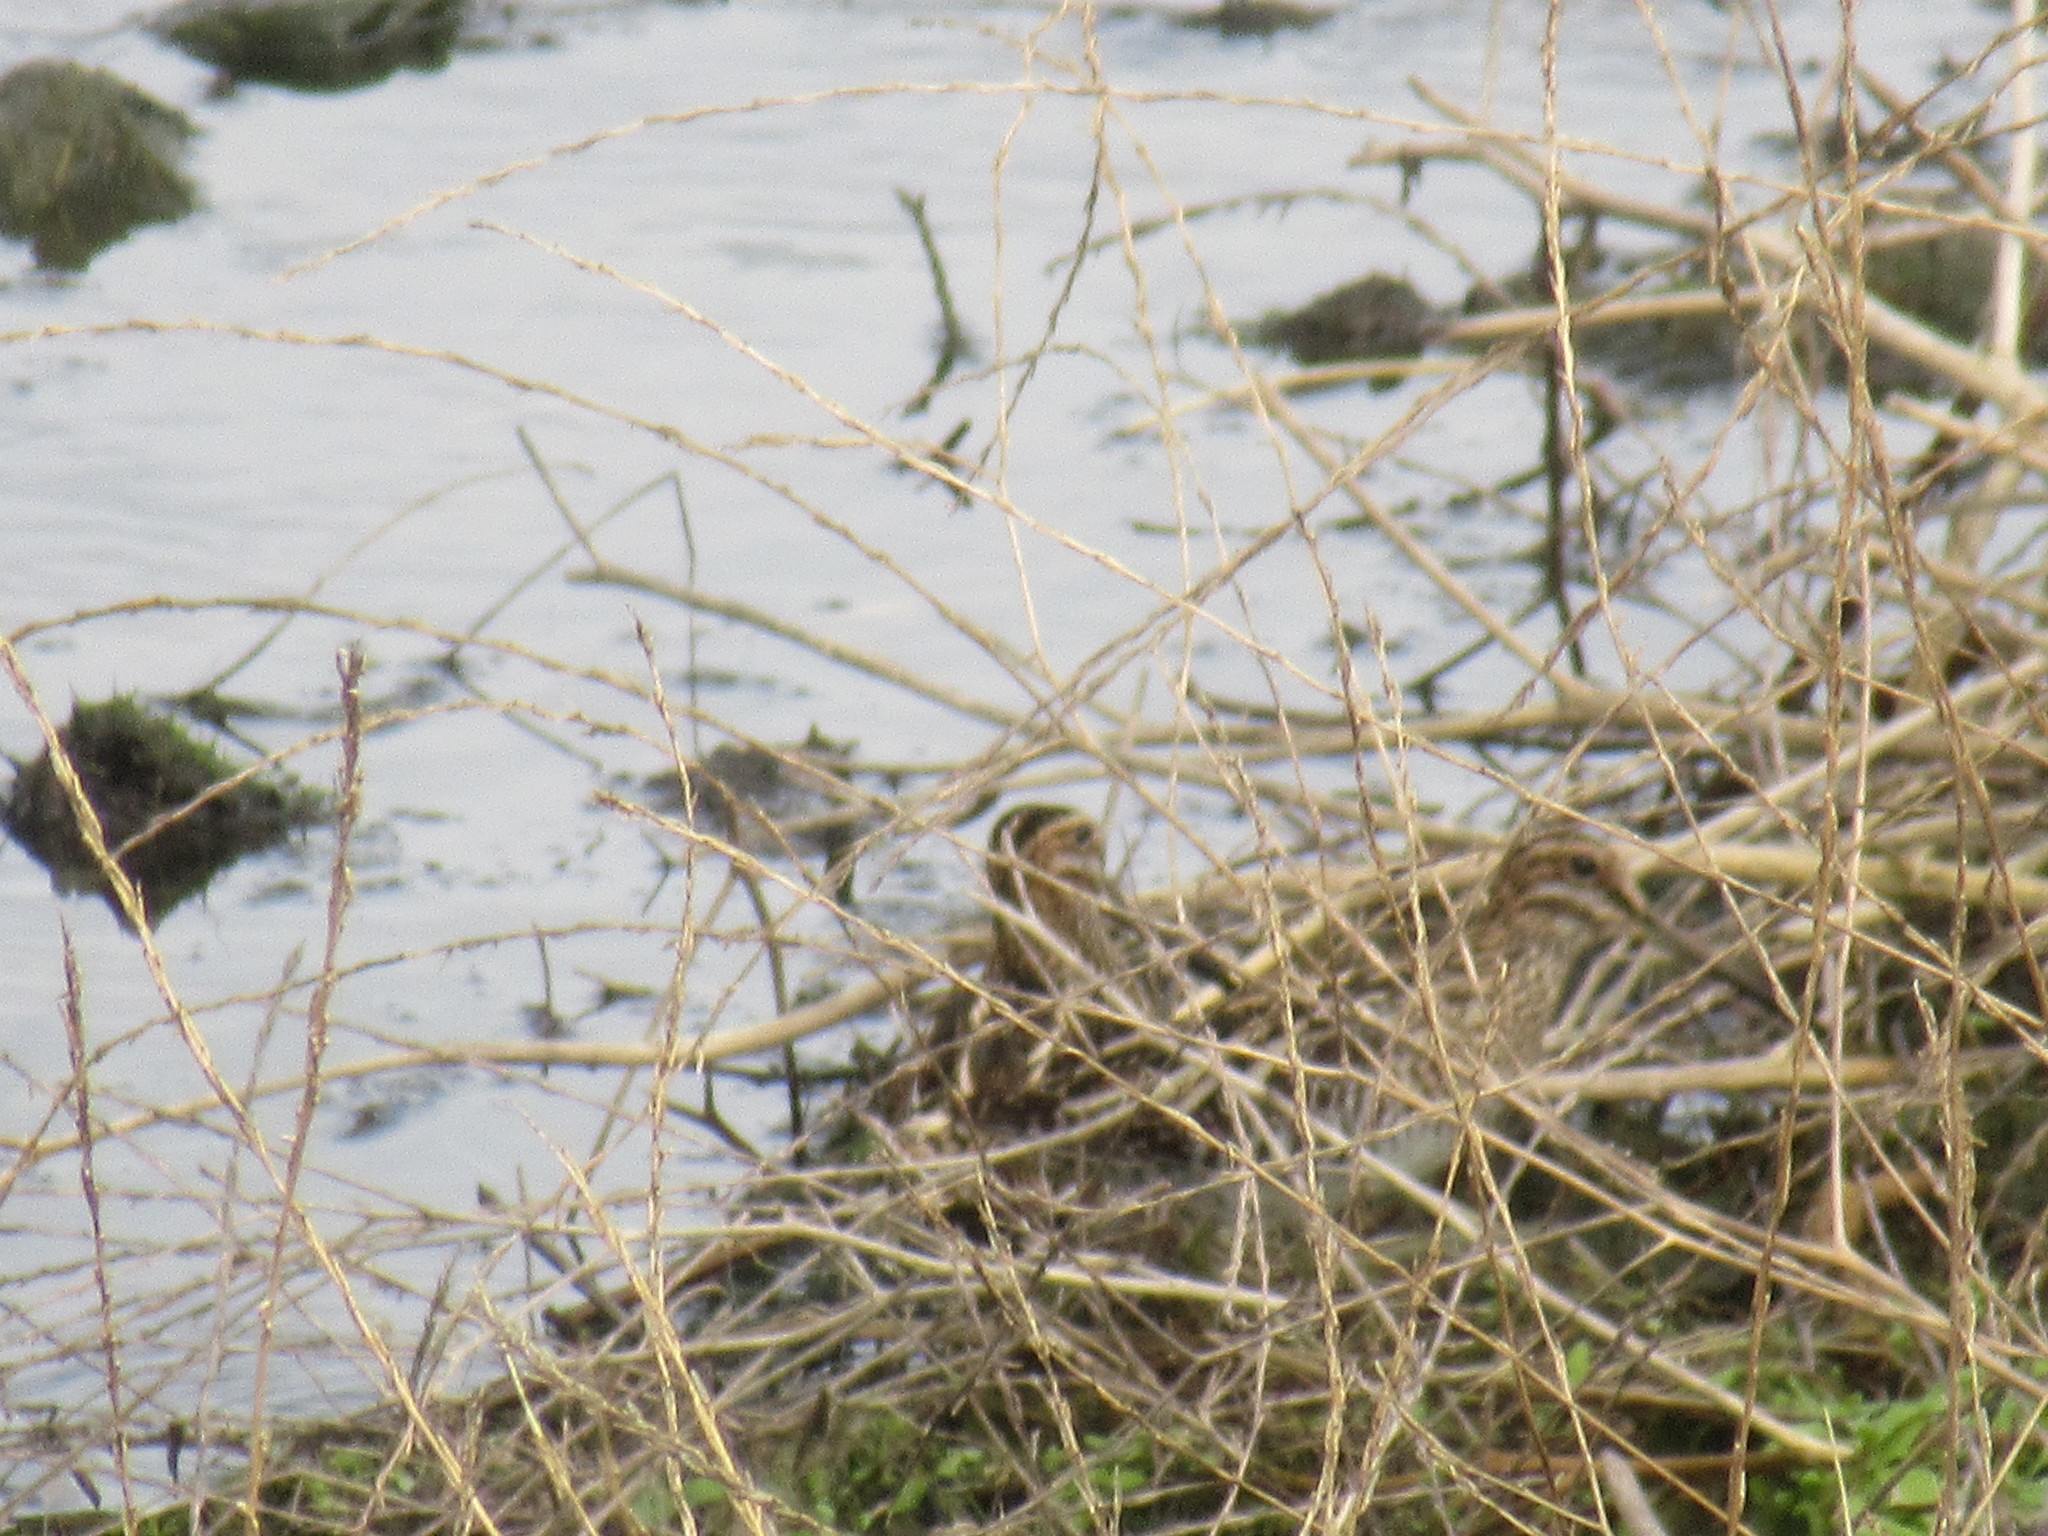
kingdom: Animalia
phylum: Chordata
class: Aves
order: Charadriiformes
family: Scolopacidae
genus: Gallinago
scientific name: Gallinago delicata
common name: Wilson's snipe
